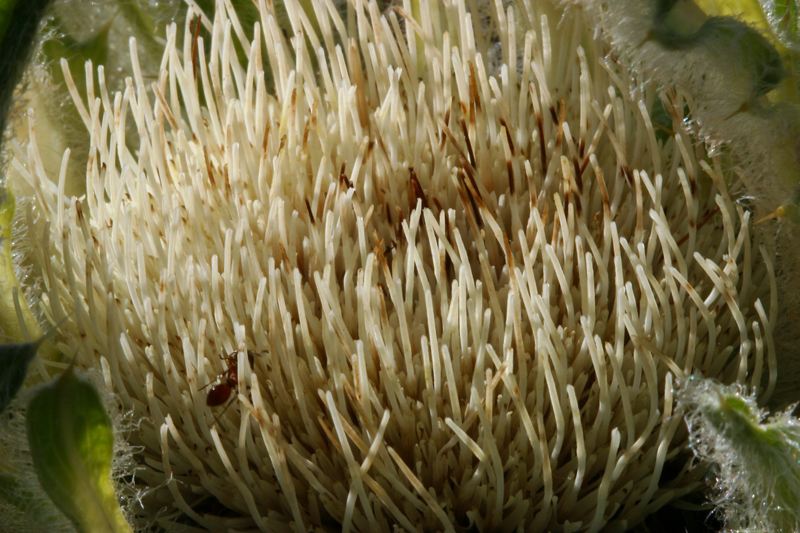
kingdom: Plantae
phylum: Tracheophyta
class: Magnoliopsida
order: Asterales
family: Asteraceae
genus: Cirsium
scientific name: Cirsium tioganum
